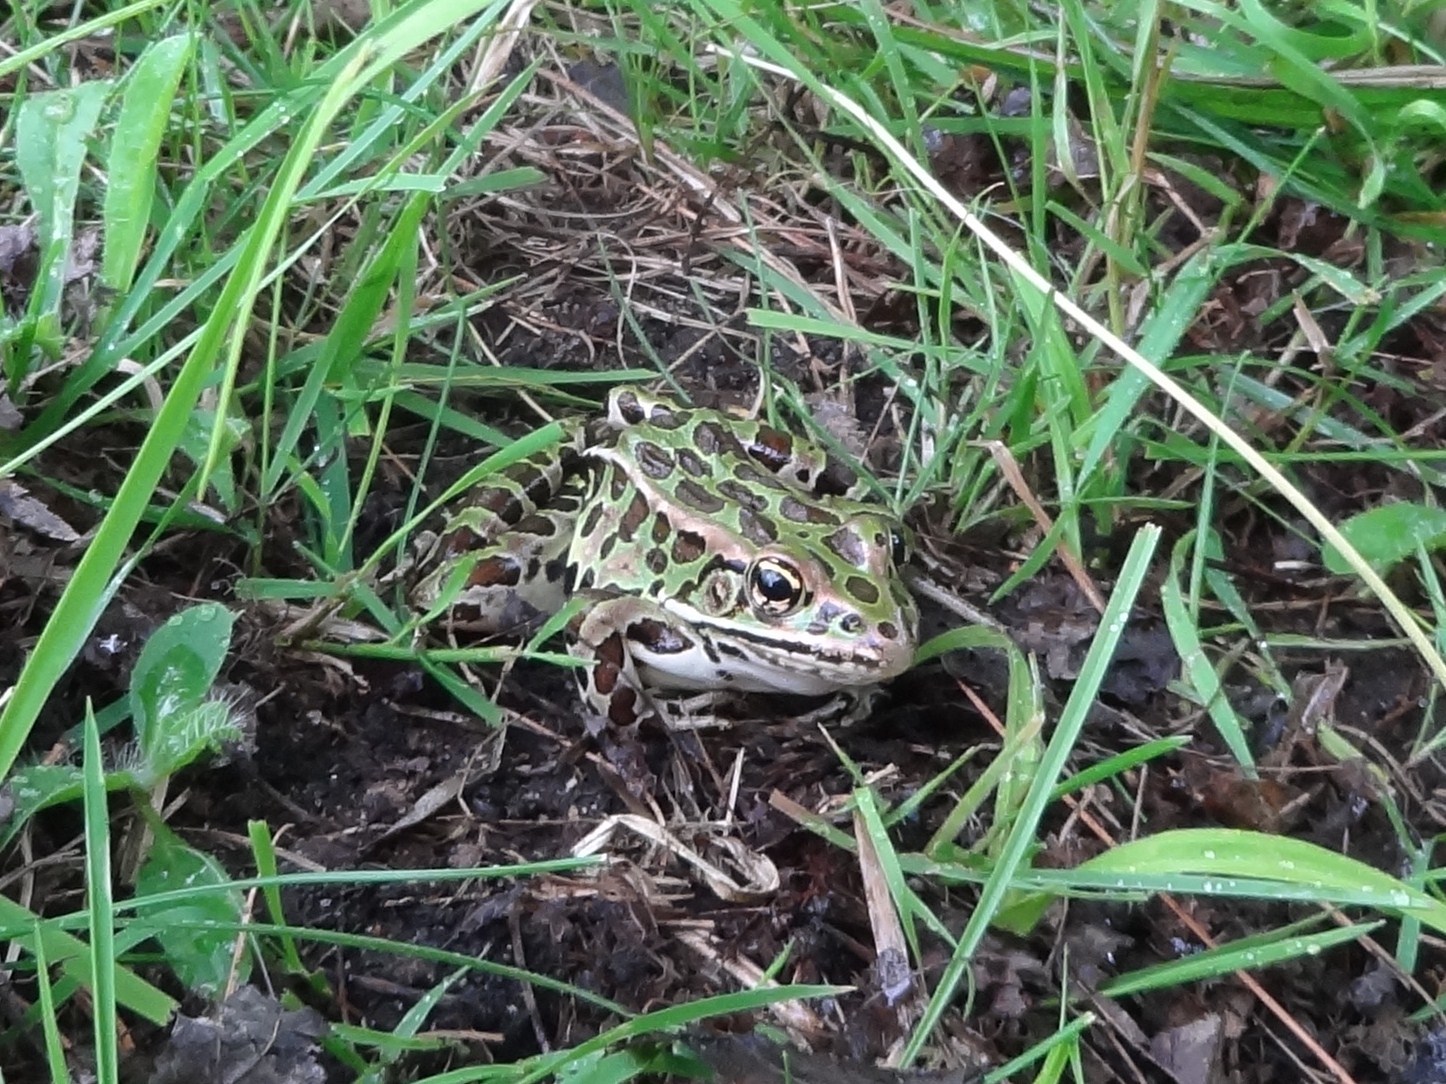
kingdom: Animalia
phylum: Chordata
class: Amphibia
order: Anura
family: Ranidae
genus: Lithobates
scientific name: Lithobates pipiens
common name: Northern leopard frog
